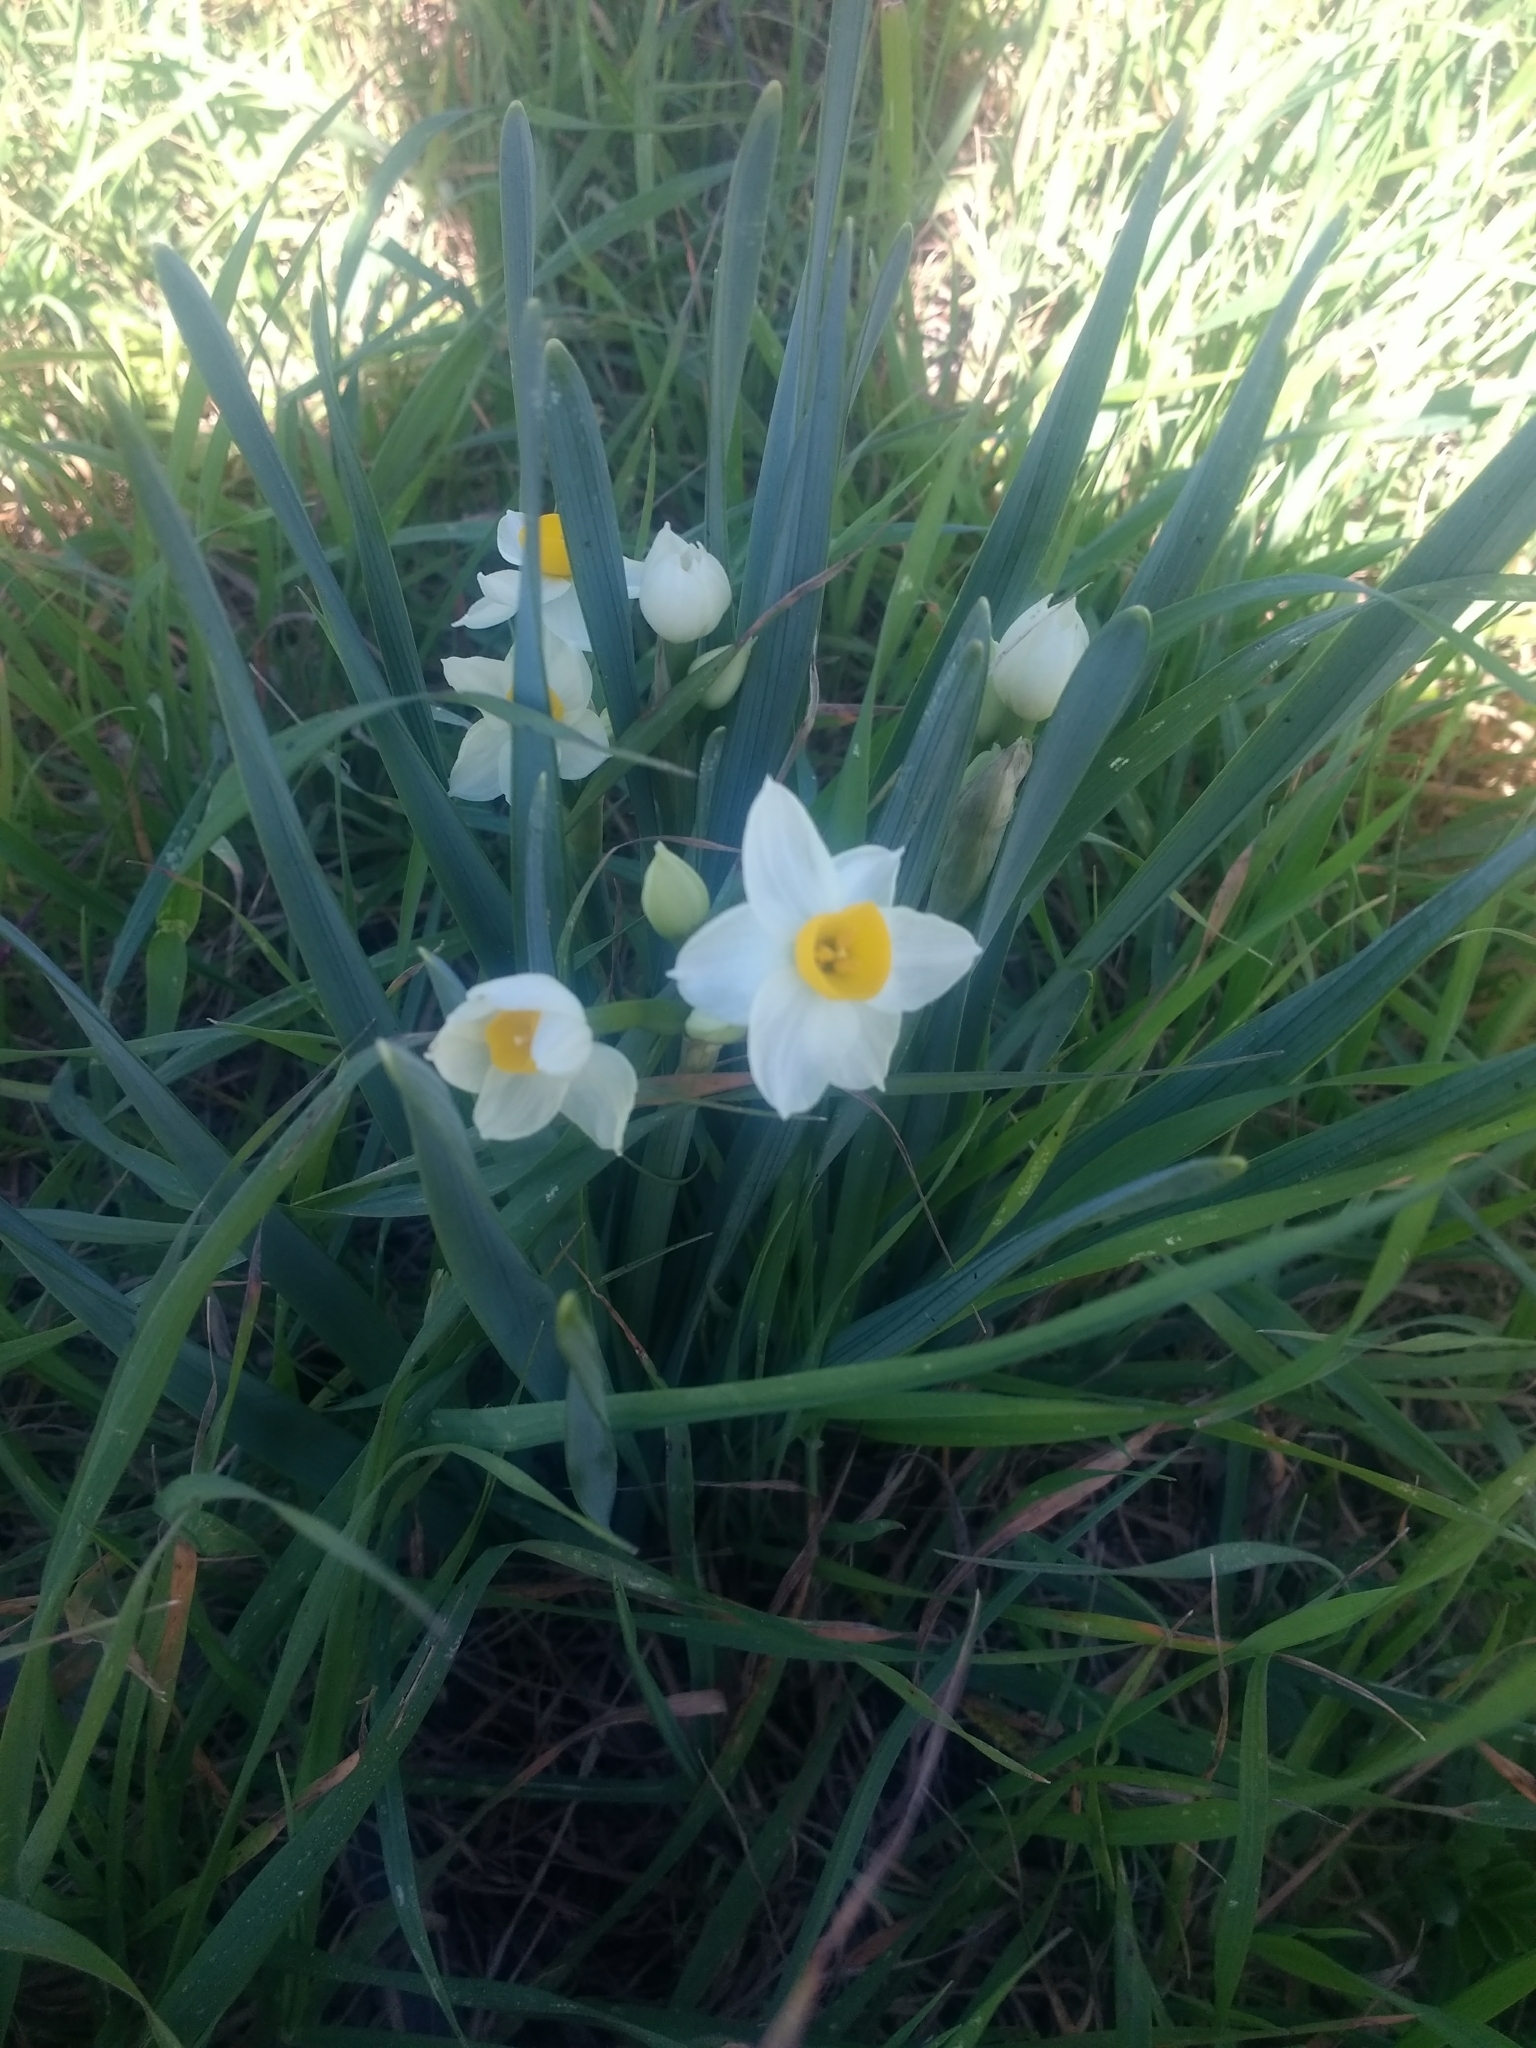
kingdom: Plantae
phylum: Tracheophyta
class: Liliopsida
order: Asparagales
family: Amaryllidaceae
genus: Narcissus
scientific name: Narcissus tazetta
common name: Bunch-flowered daffodil
